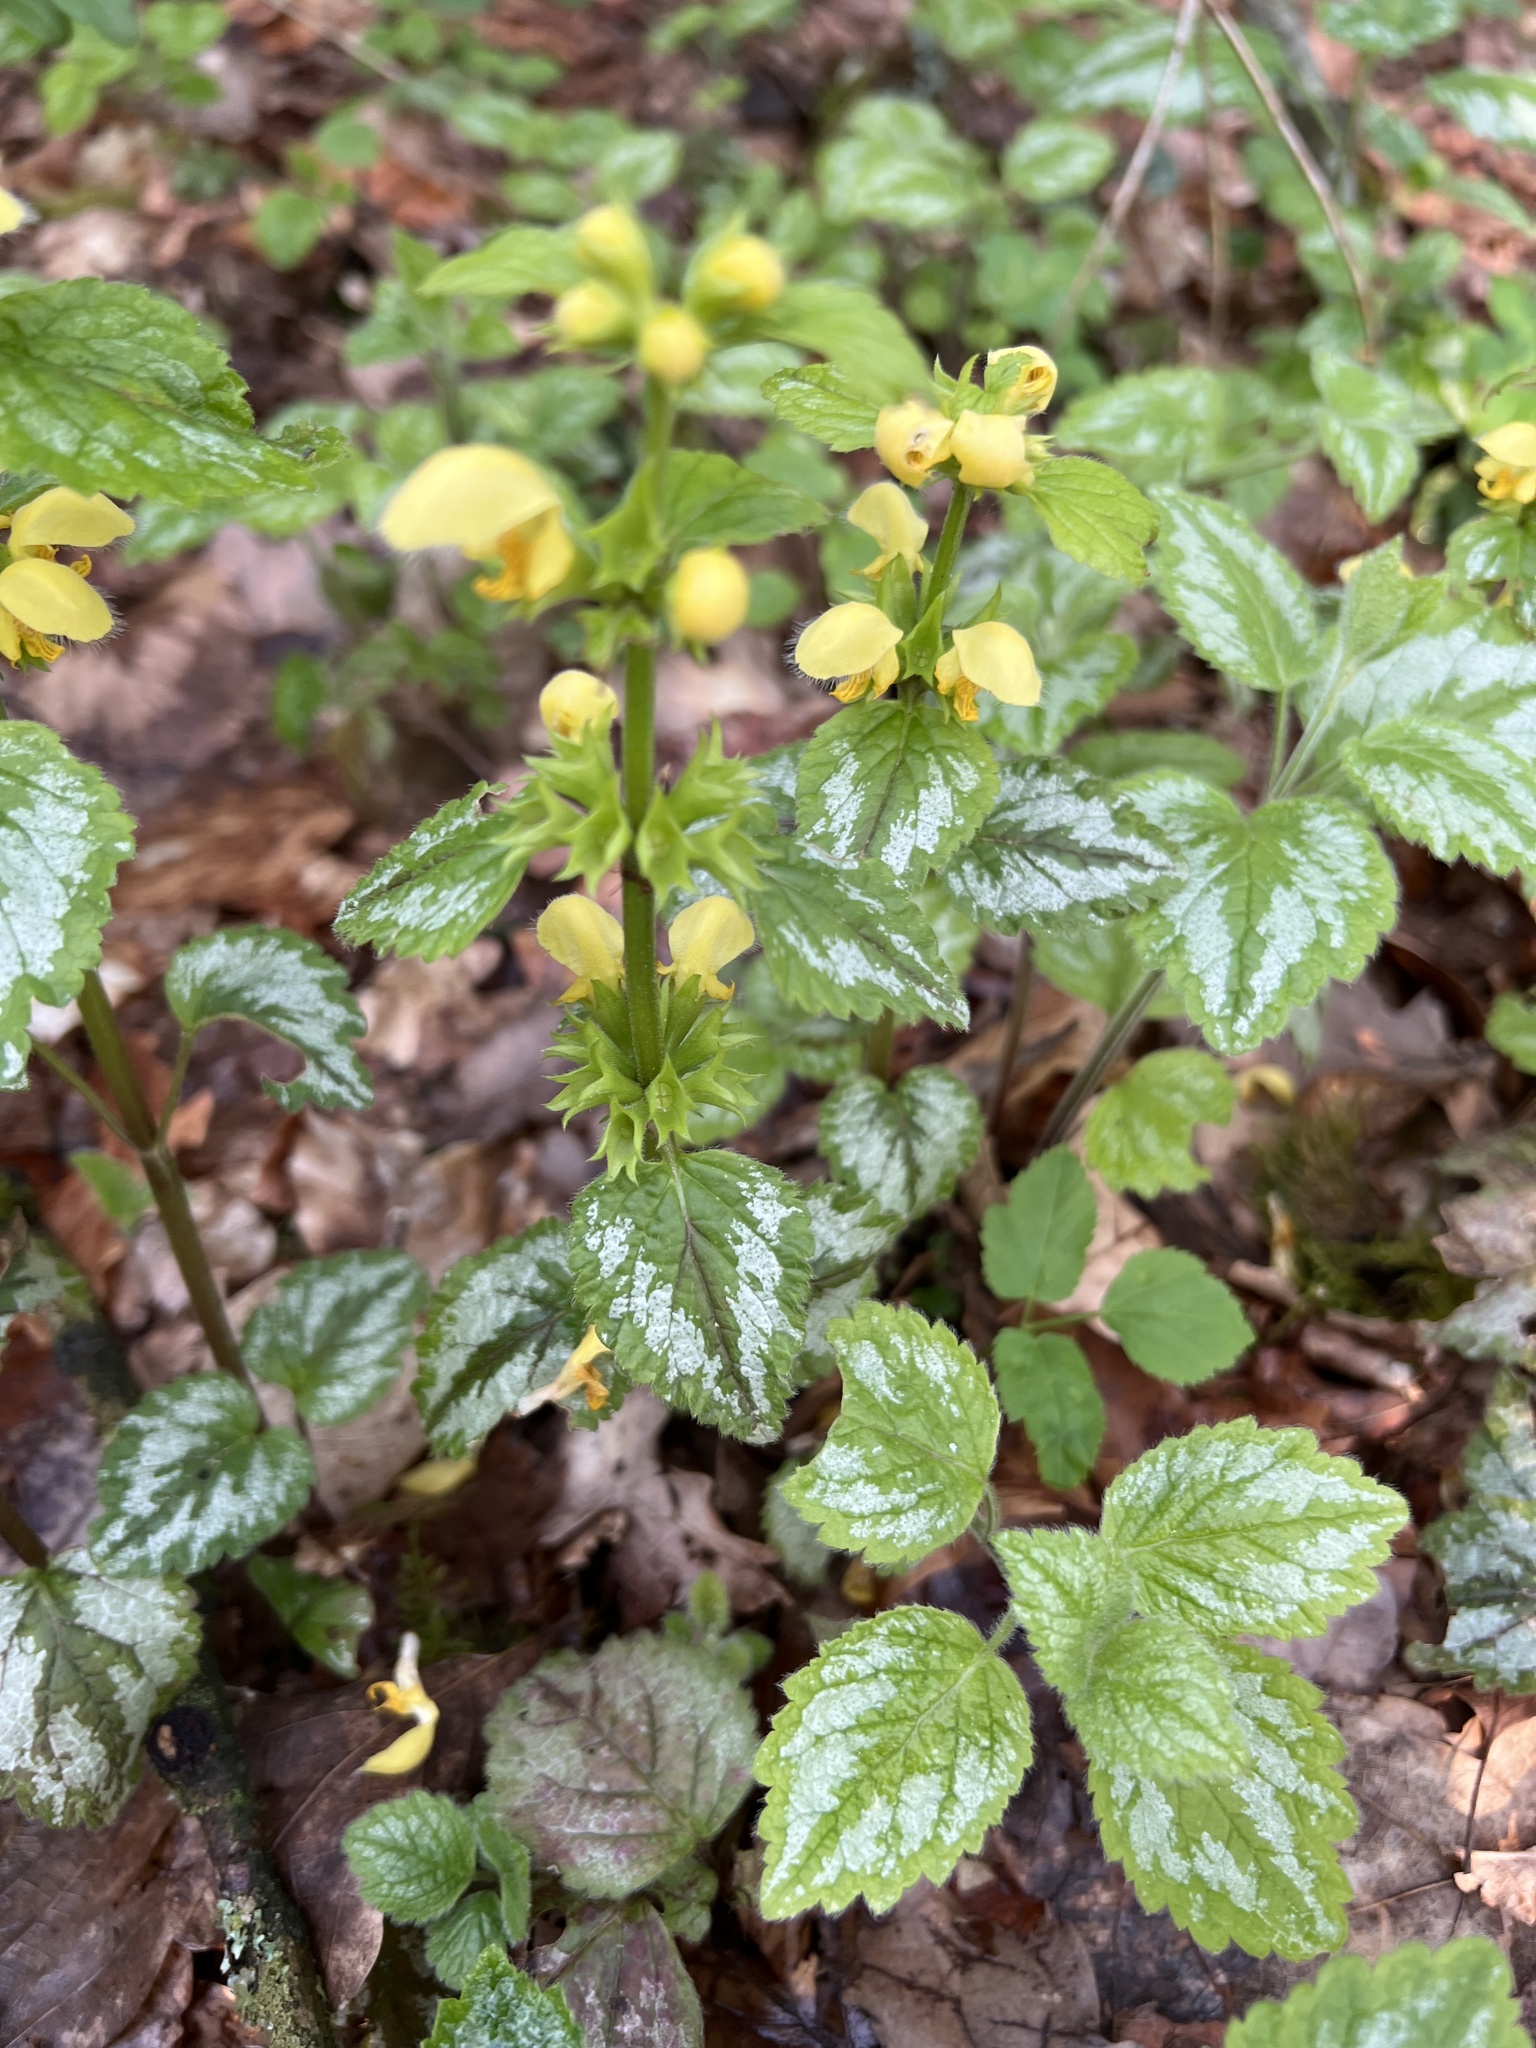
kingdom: Plantae
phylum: Tracheophyta
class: Magnoliopsida
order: Lamiales
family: Lamiaceae
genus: Lamium
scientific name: Lamium galeobdolon
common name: Yellow archangel
